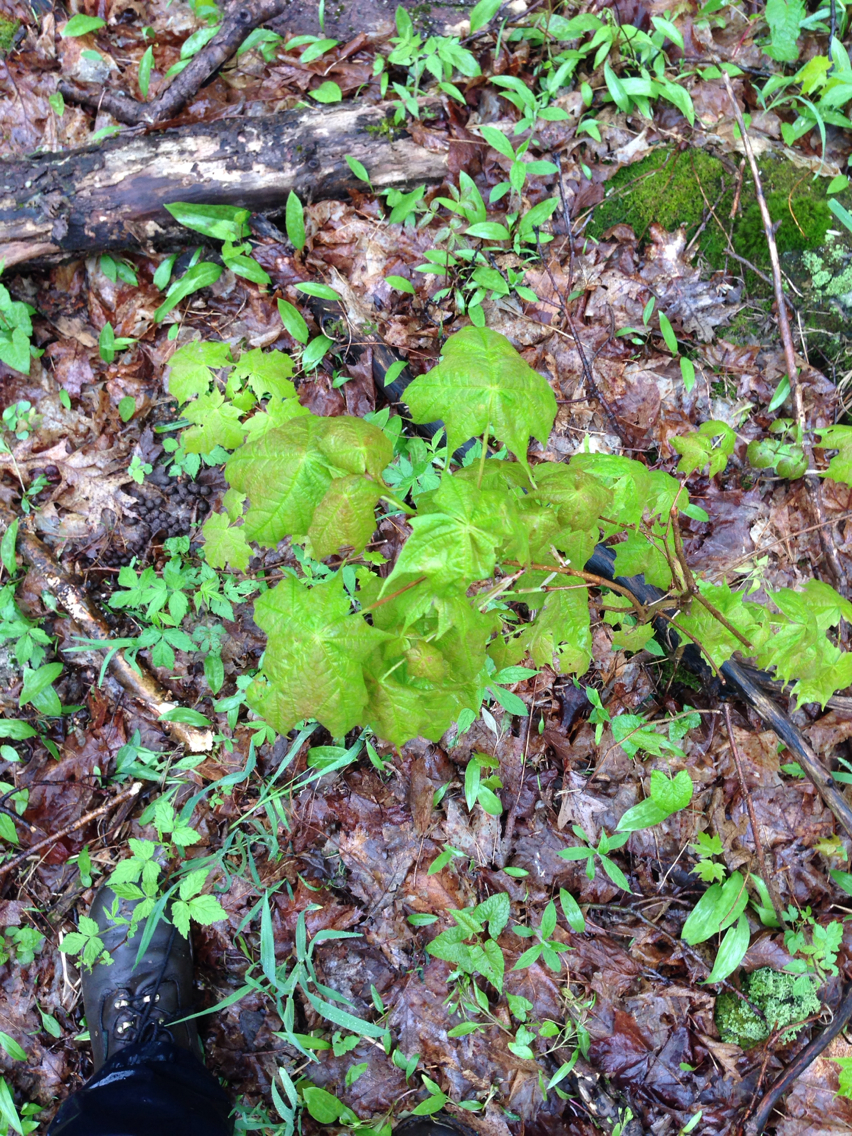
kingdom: Plantae
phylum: Tracheophyta
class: Magnoliopsida
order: Sapindales
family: Sapindaceae
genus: Acer
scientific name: Acer saccharum
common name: Sugar maple
